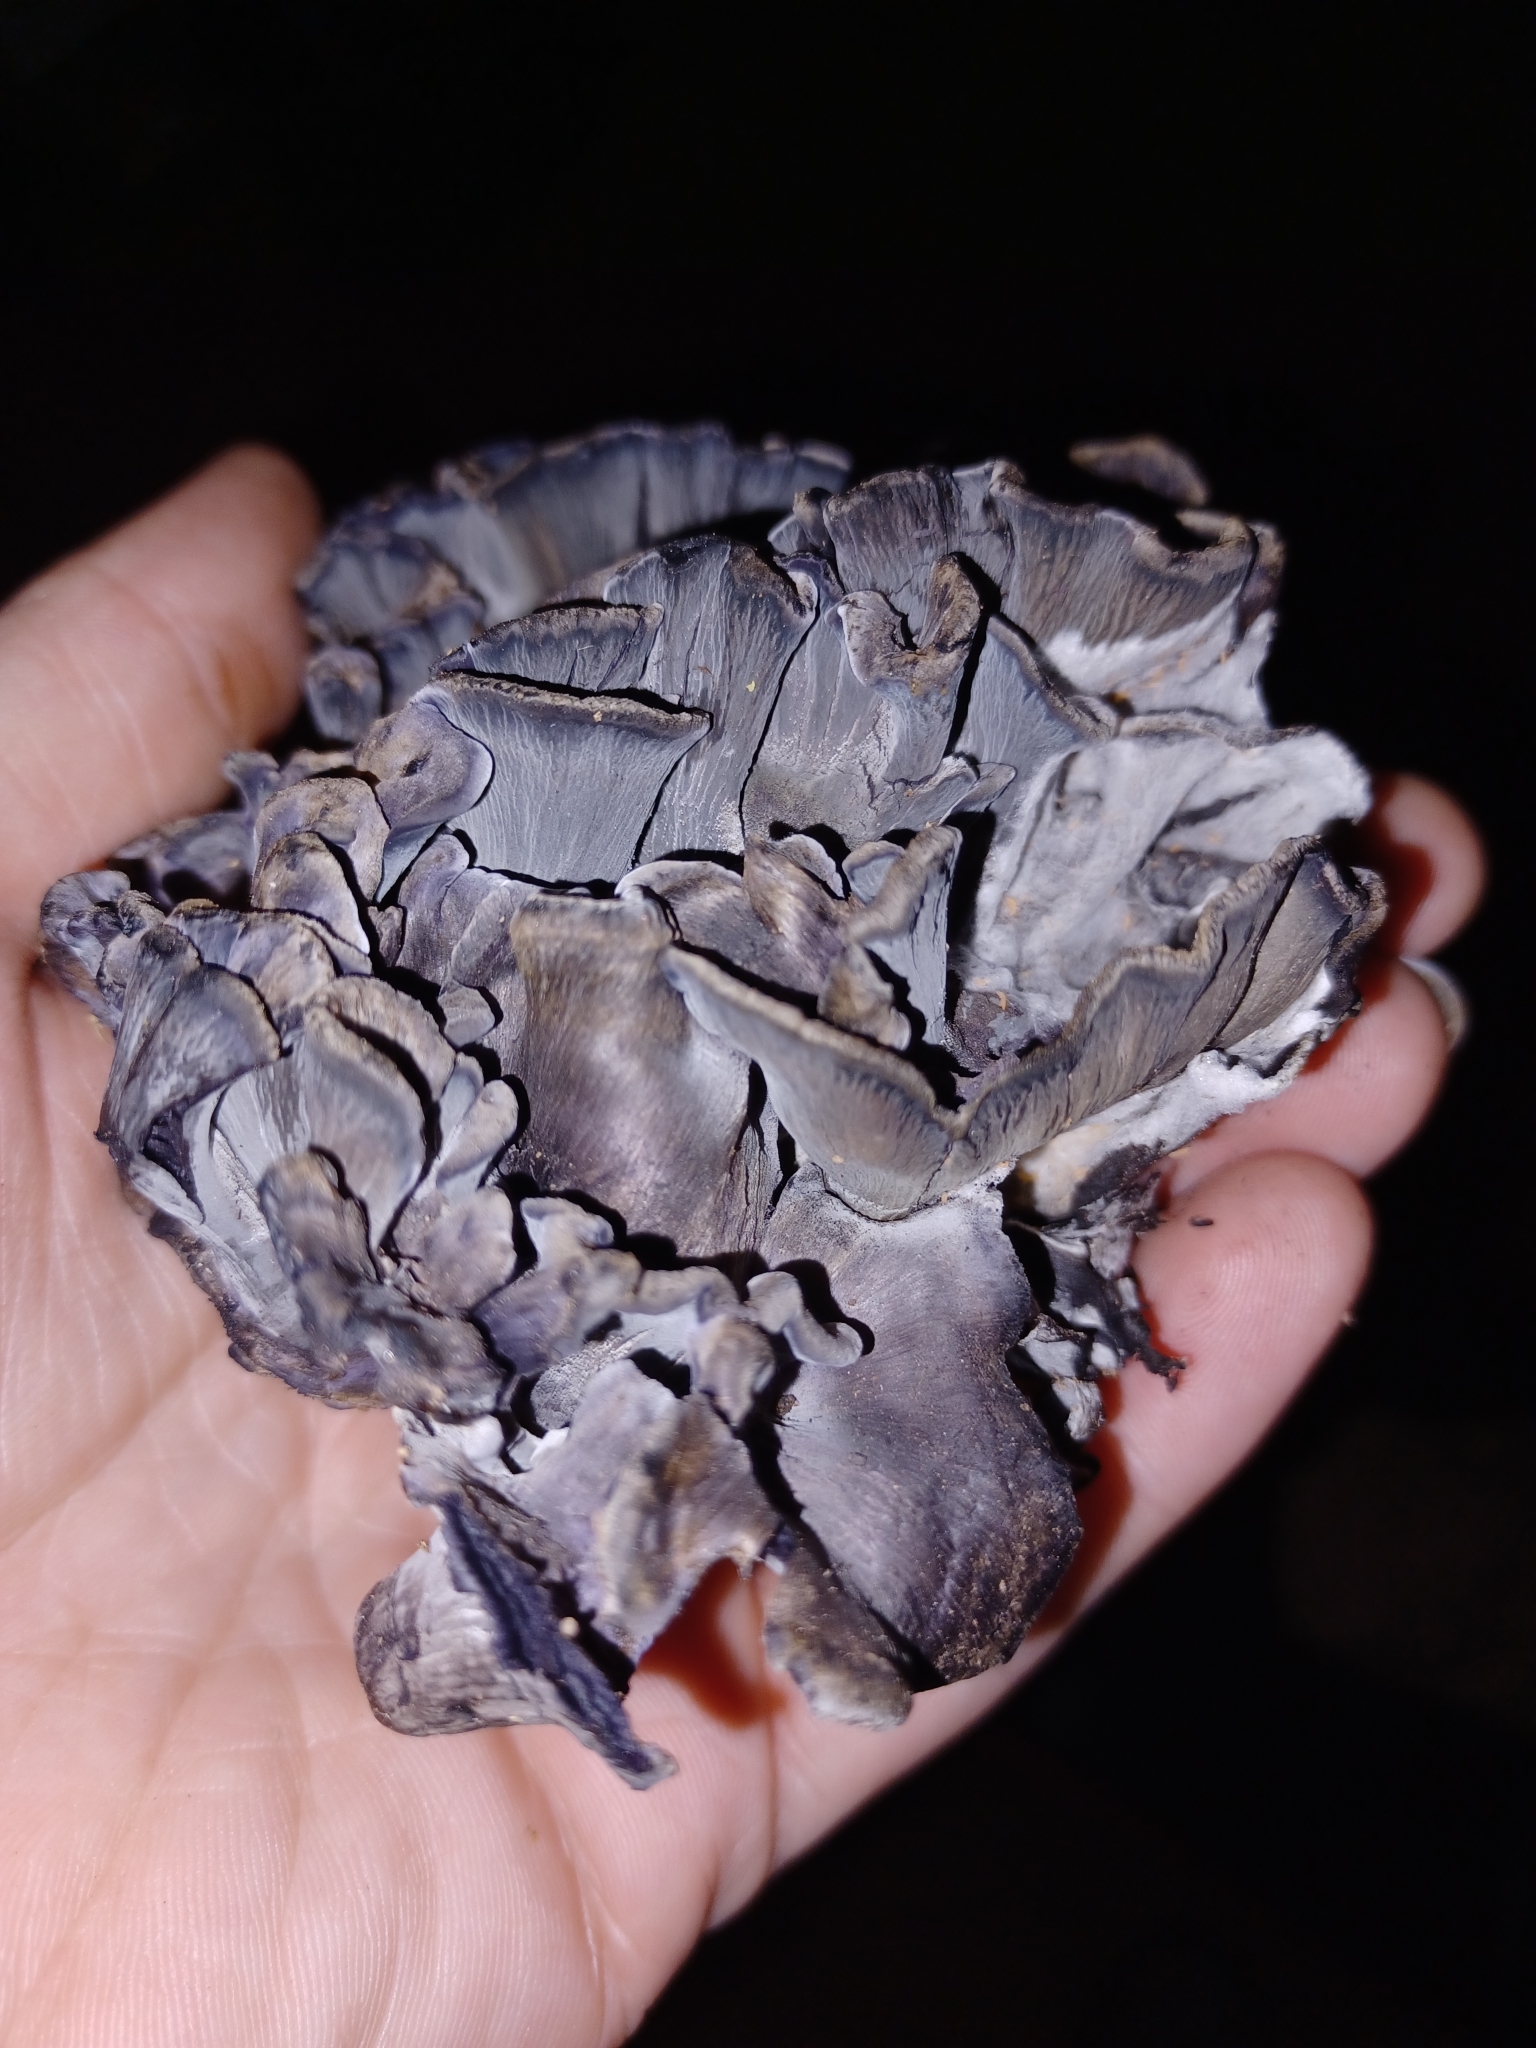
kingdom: Fungi
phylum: Basidiomycota
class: Agaricomycetes
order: Thelephorales
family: Thelephoraceae
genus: Polyozellus
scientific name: Polyozellus atrolazulinus
